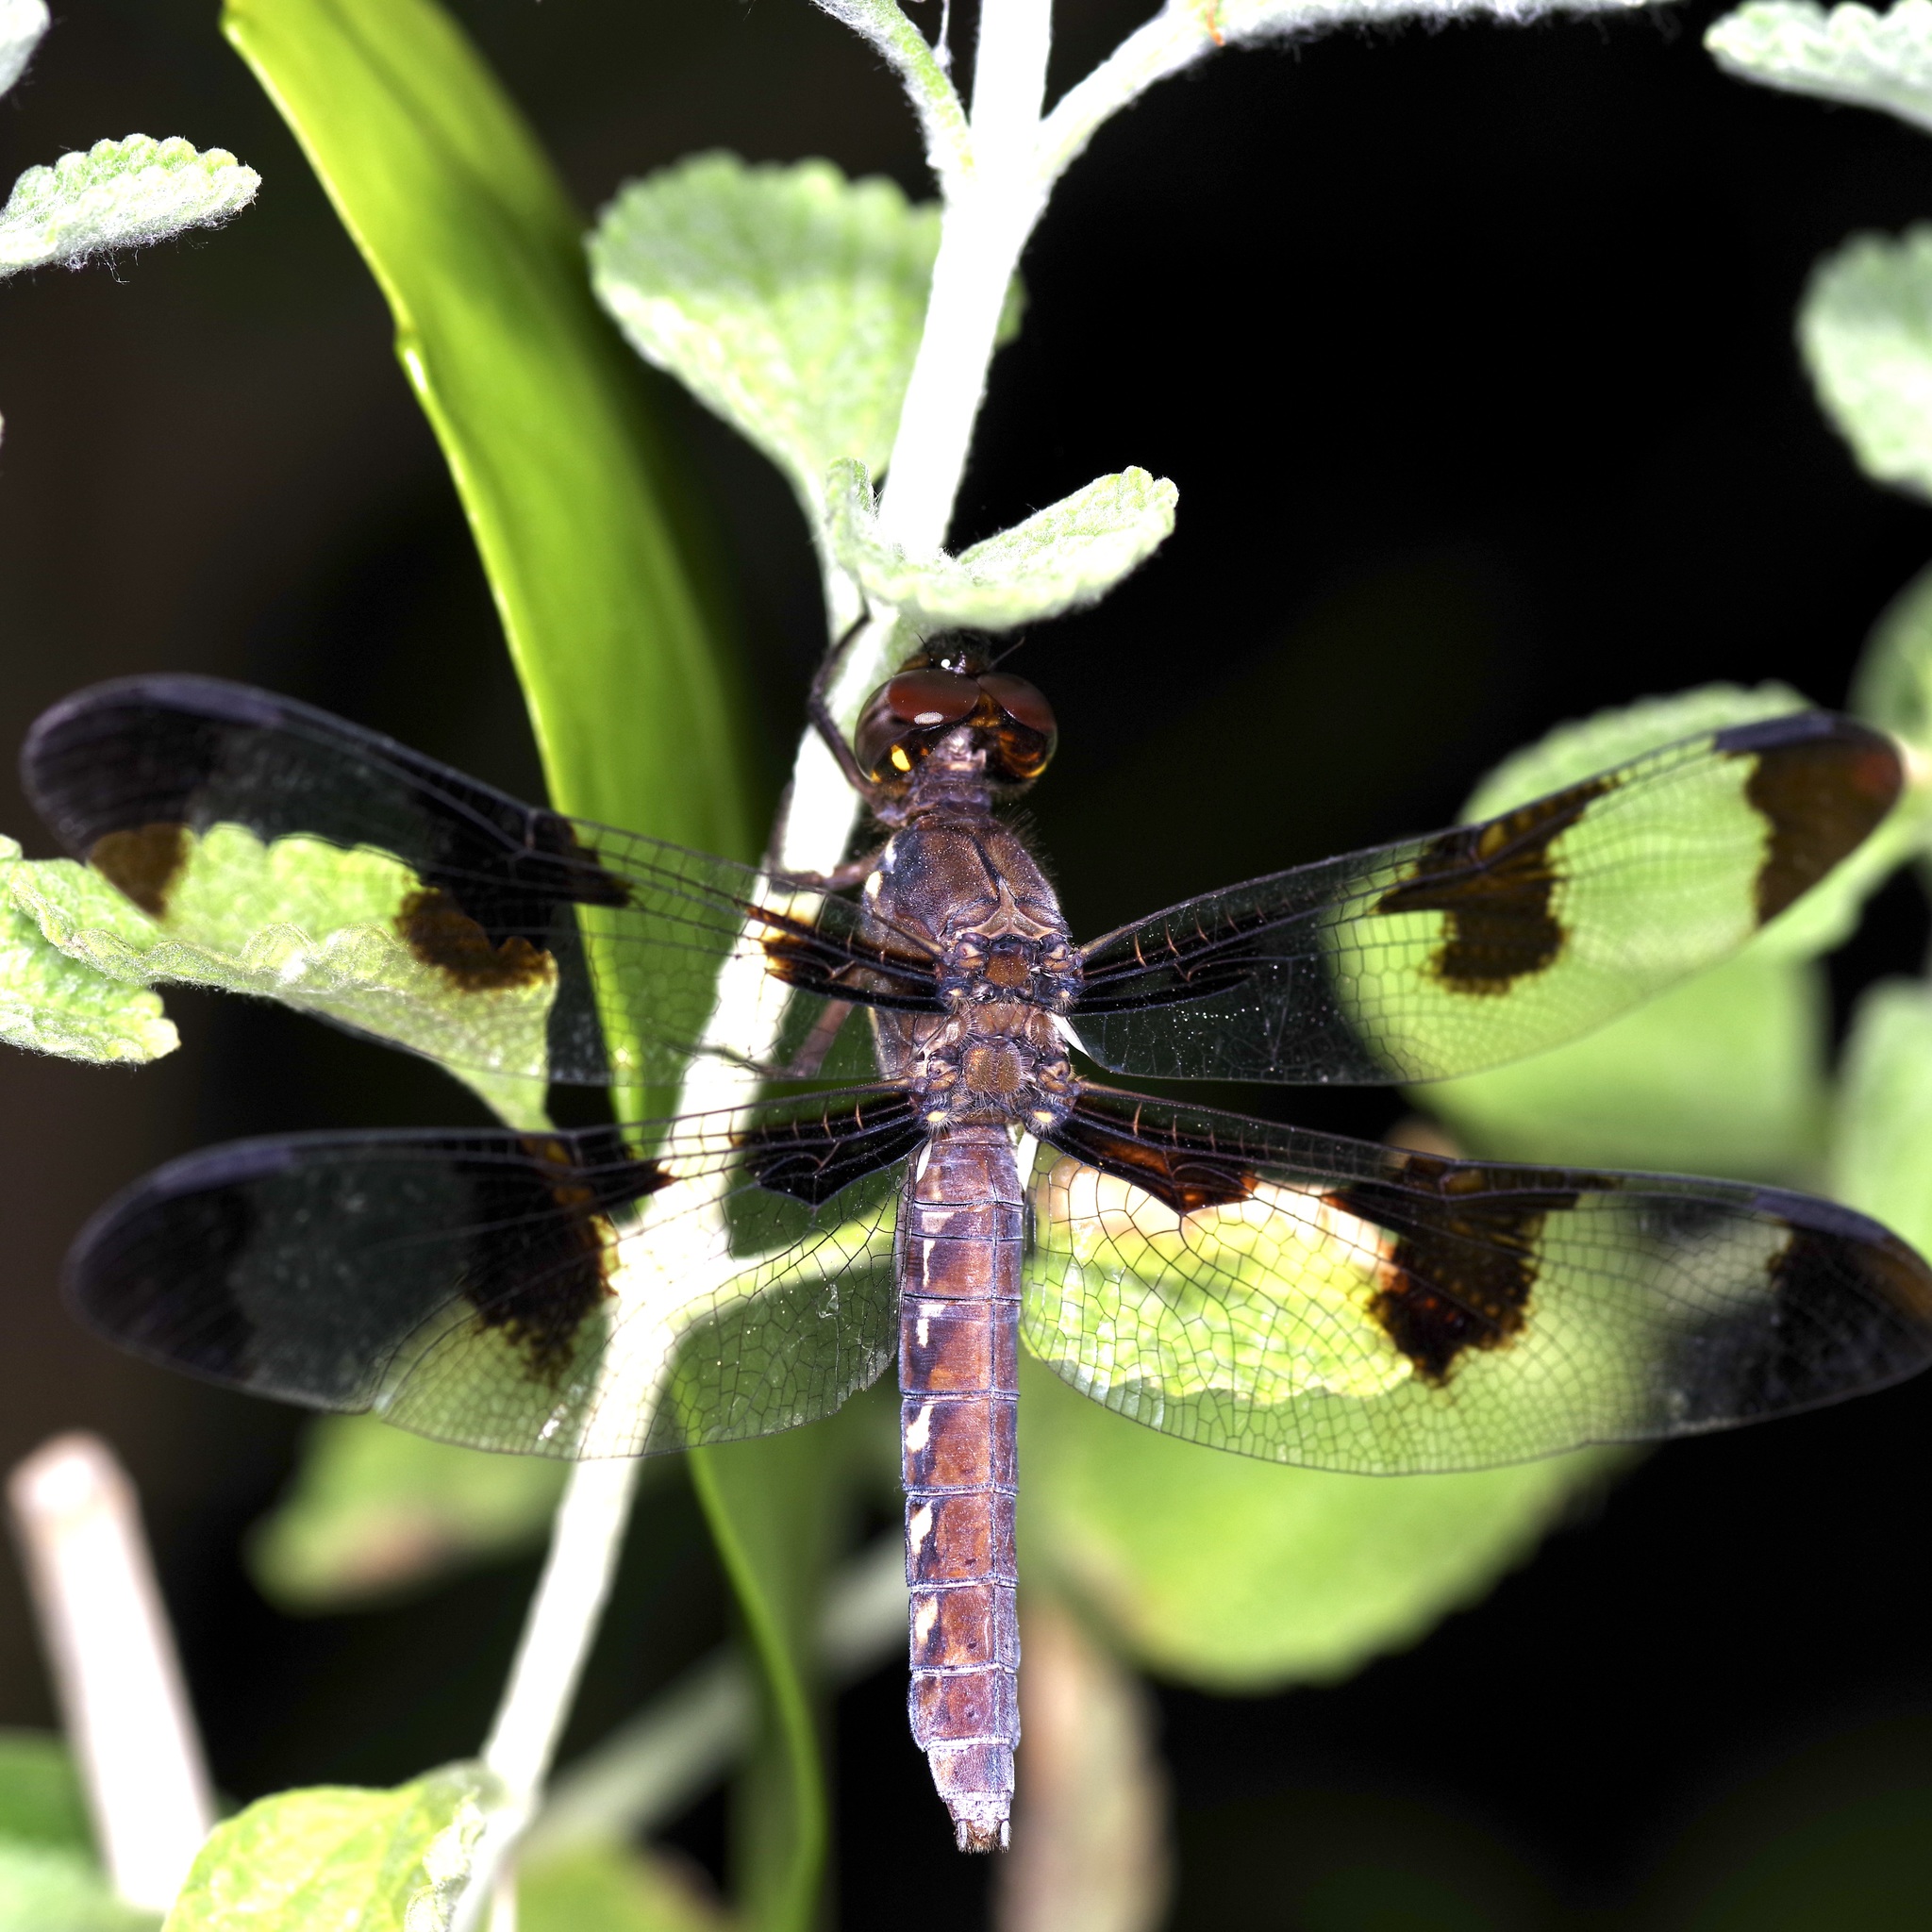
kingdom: Animalia
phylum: Arthropoda
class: Insecta
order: Odonata
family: Libellulidae
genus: Plathemis
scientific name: Plathemis lydia
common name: Common whitetail
